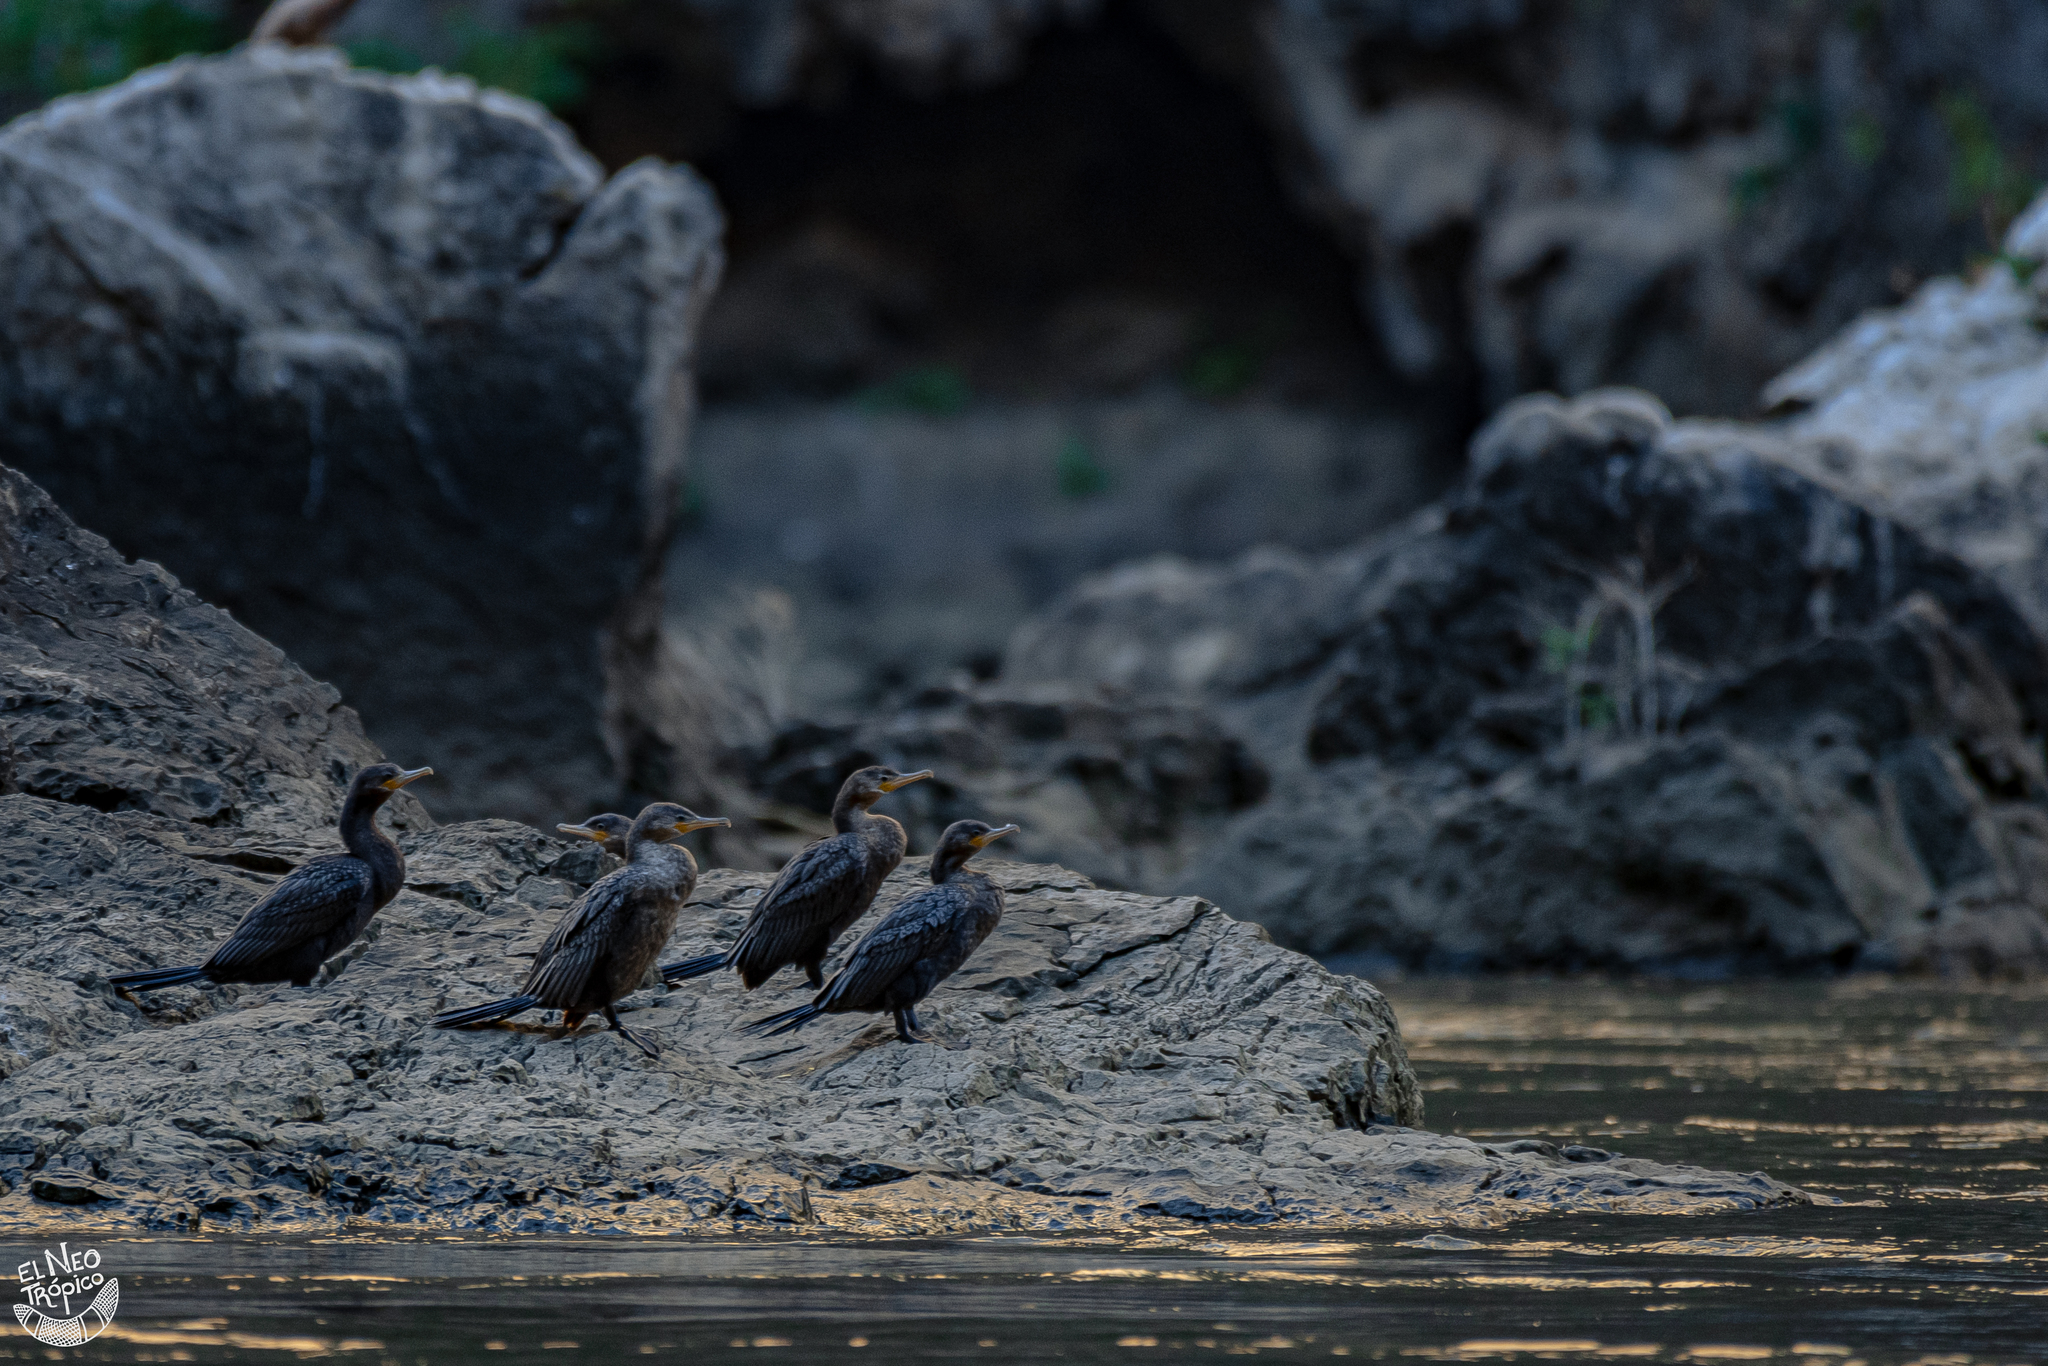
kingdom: Animalia
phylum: Chordata
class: Aves
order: Suliformes
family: Phalacrocoracidae
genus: Phalacrocorax
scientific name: Phalacrocorax brasilianus
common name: Neotropic cormorant
